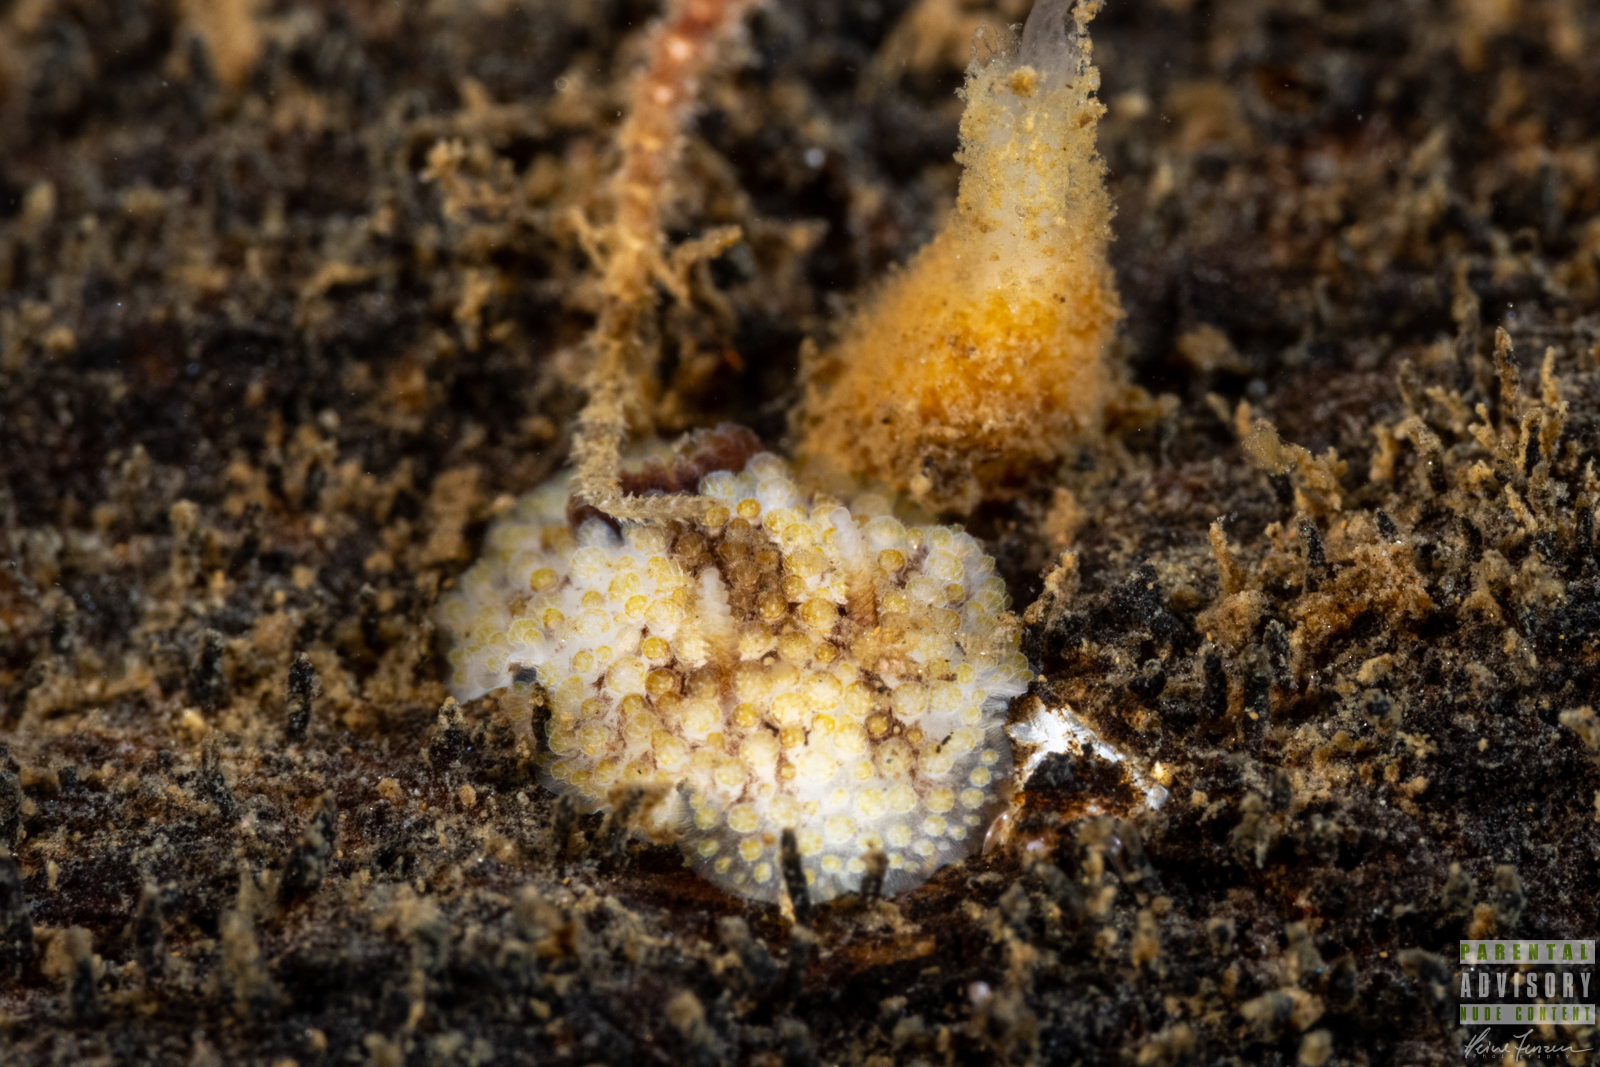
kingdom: Animalia
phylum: Mollusca
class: Gastropoda
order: Nudibranchia
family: Onchidorididae
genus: Onchidoris
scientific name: Onchidoris bilamellata
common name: Barnacle-eating onchidoris
